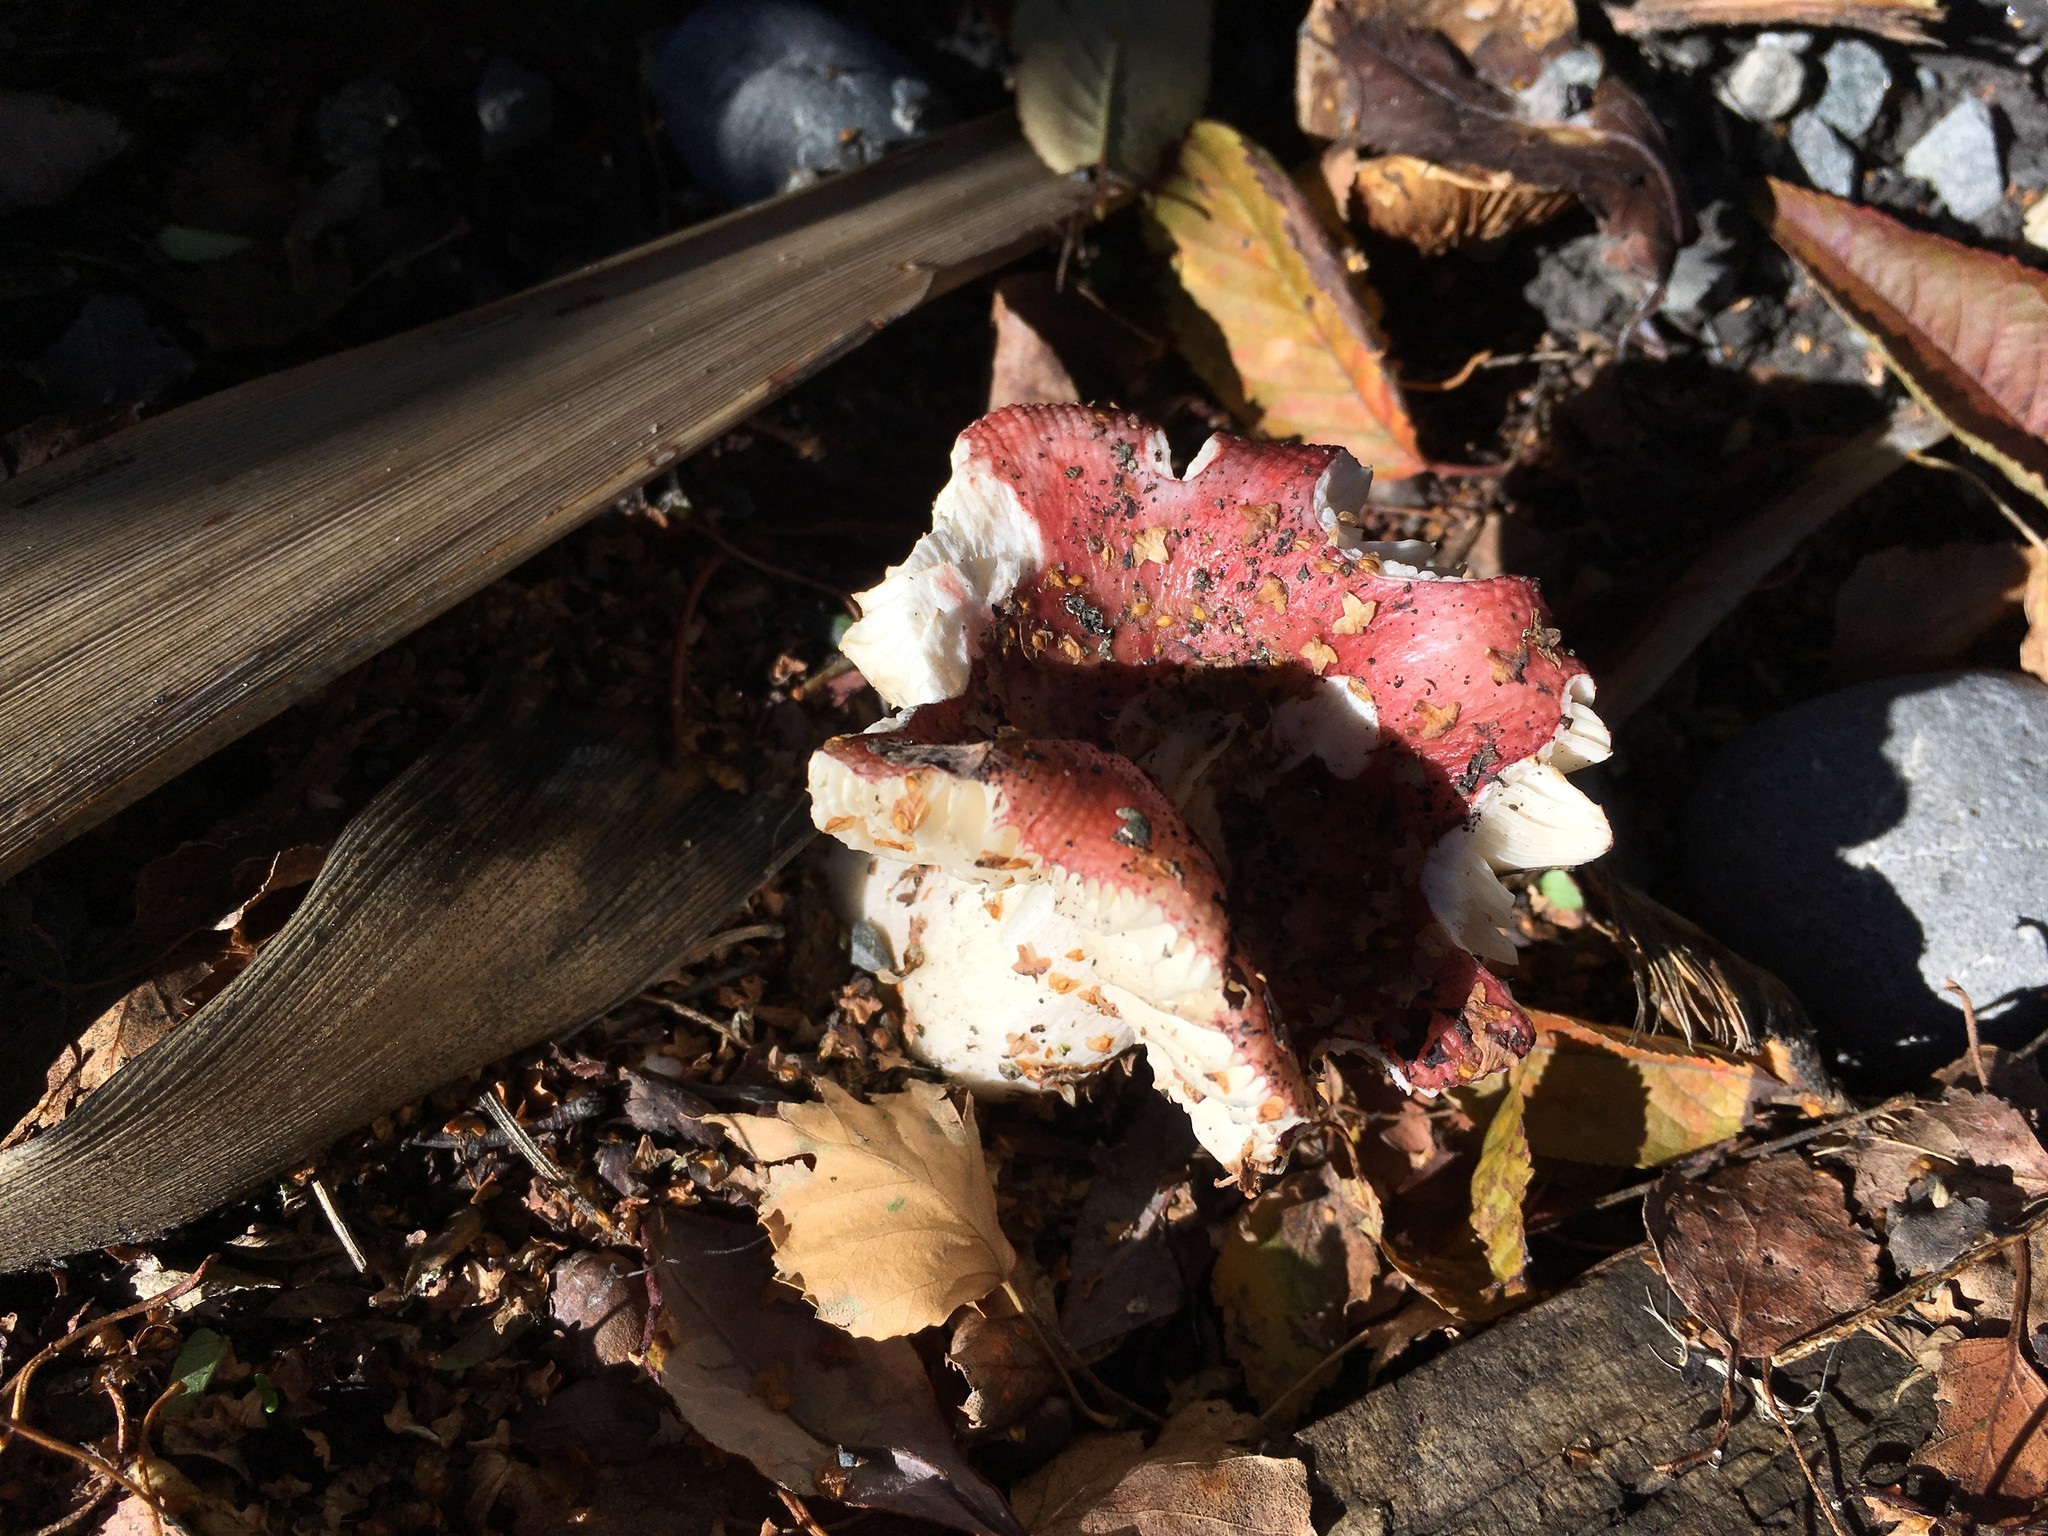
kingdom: Fungi
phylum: Basidiomycota
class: Agaricomycetes
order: Russulales
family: Russulaceae
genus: Russula
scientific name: Russula nitida
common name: Purple swamp brittlegill
